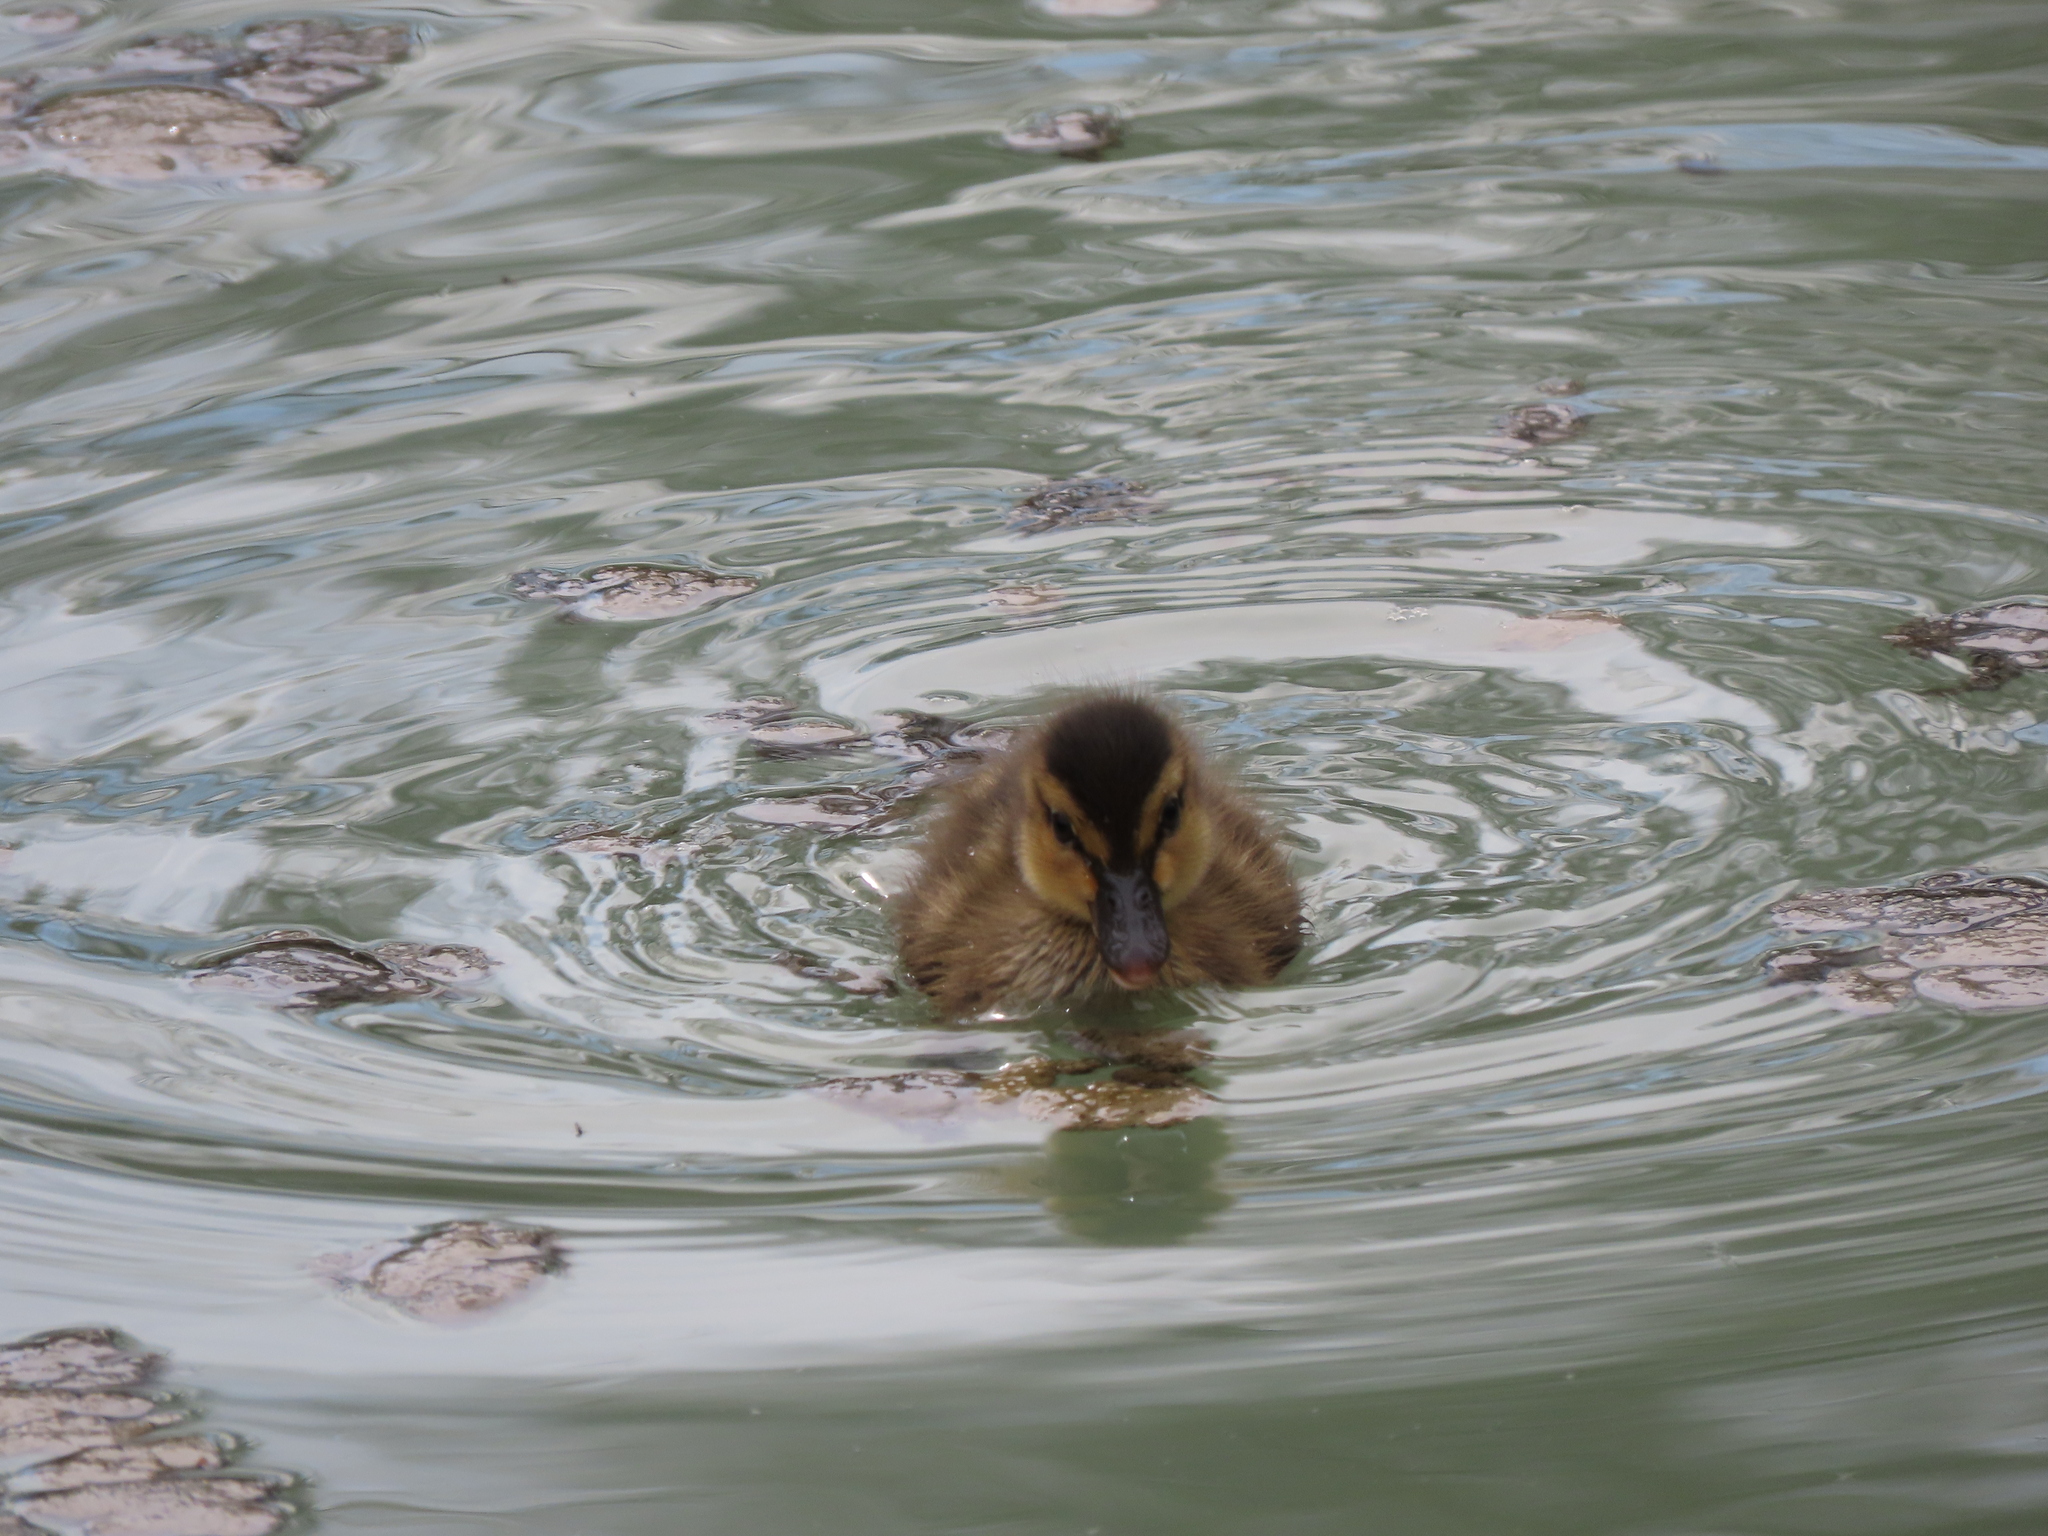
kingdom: Animalia
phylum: Chordata
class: Aves
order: Anseriformes
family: Anatidae
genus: Anas
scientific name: Anas platyrhynchos
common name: Mallard
